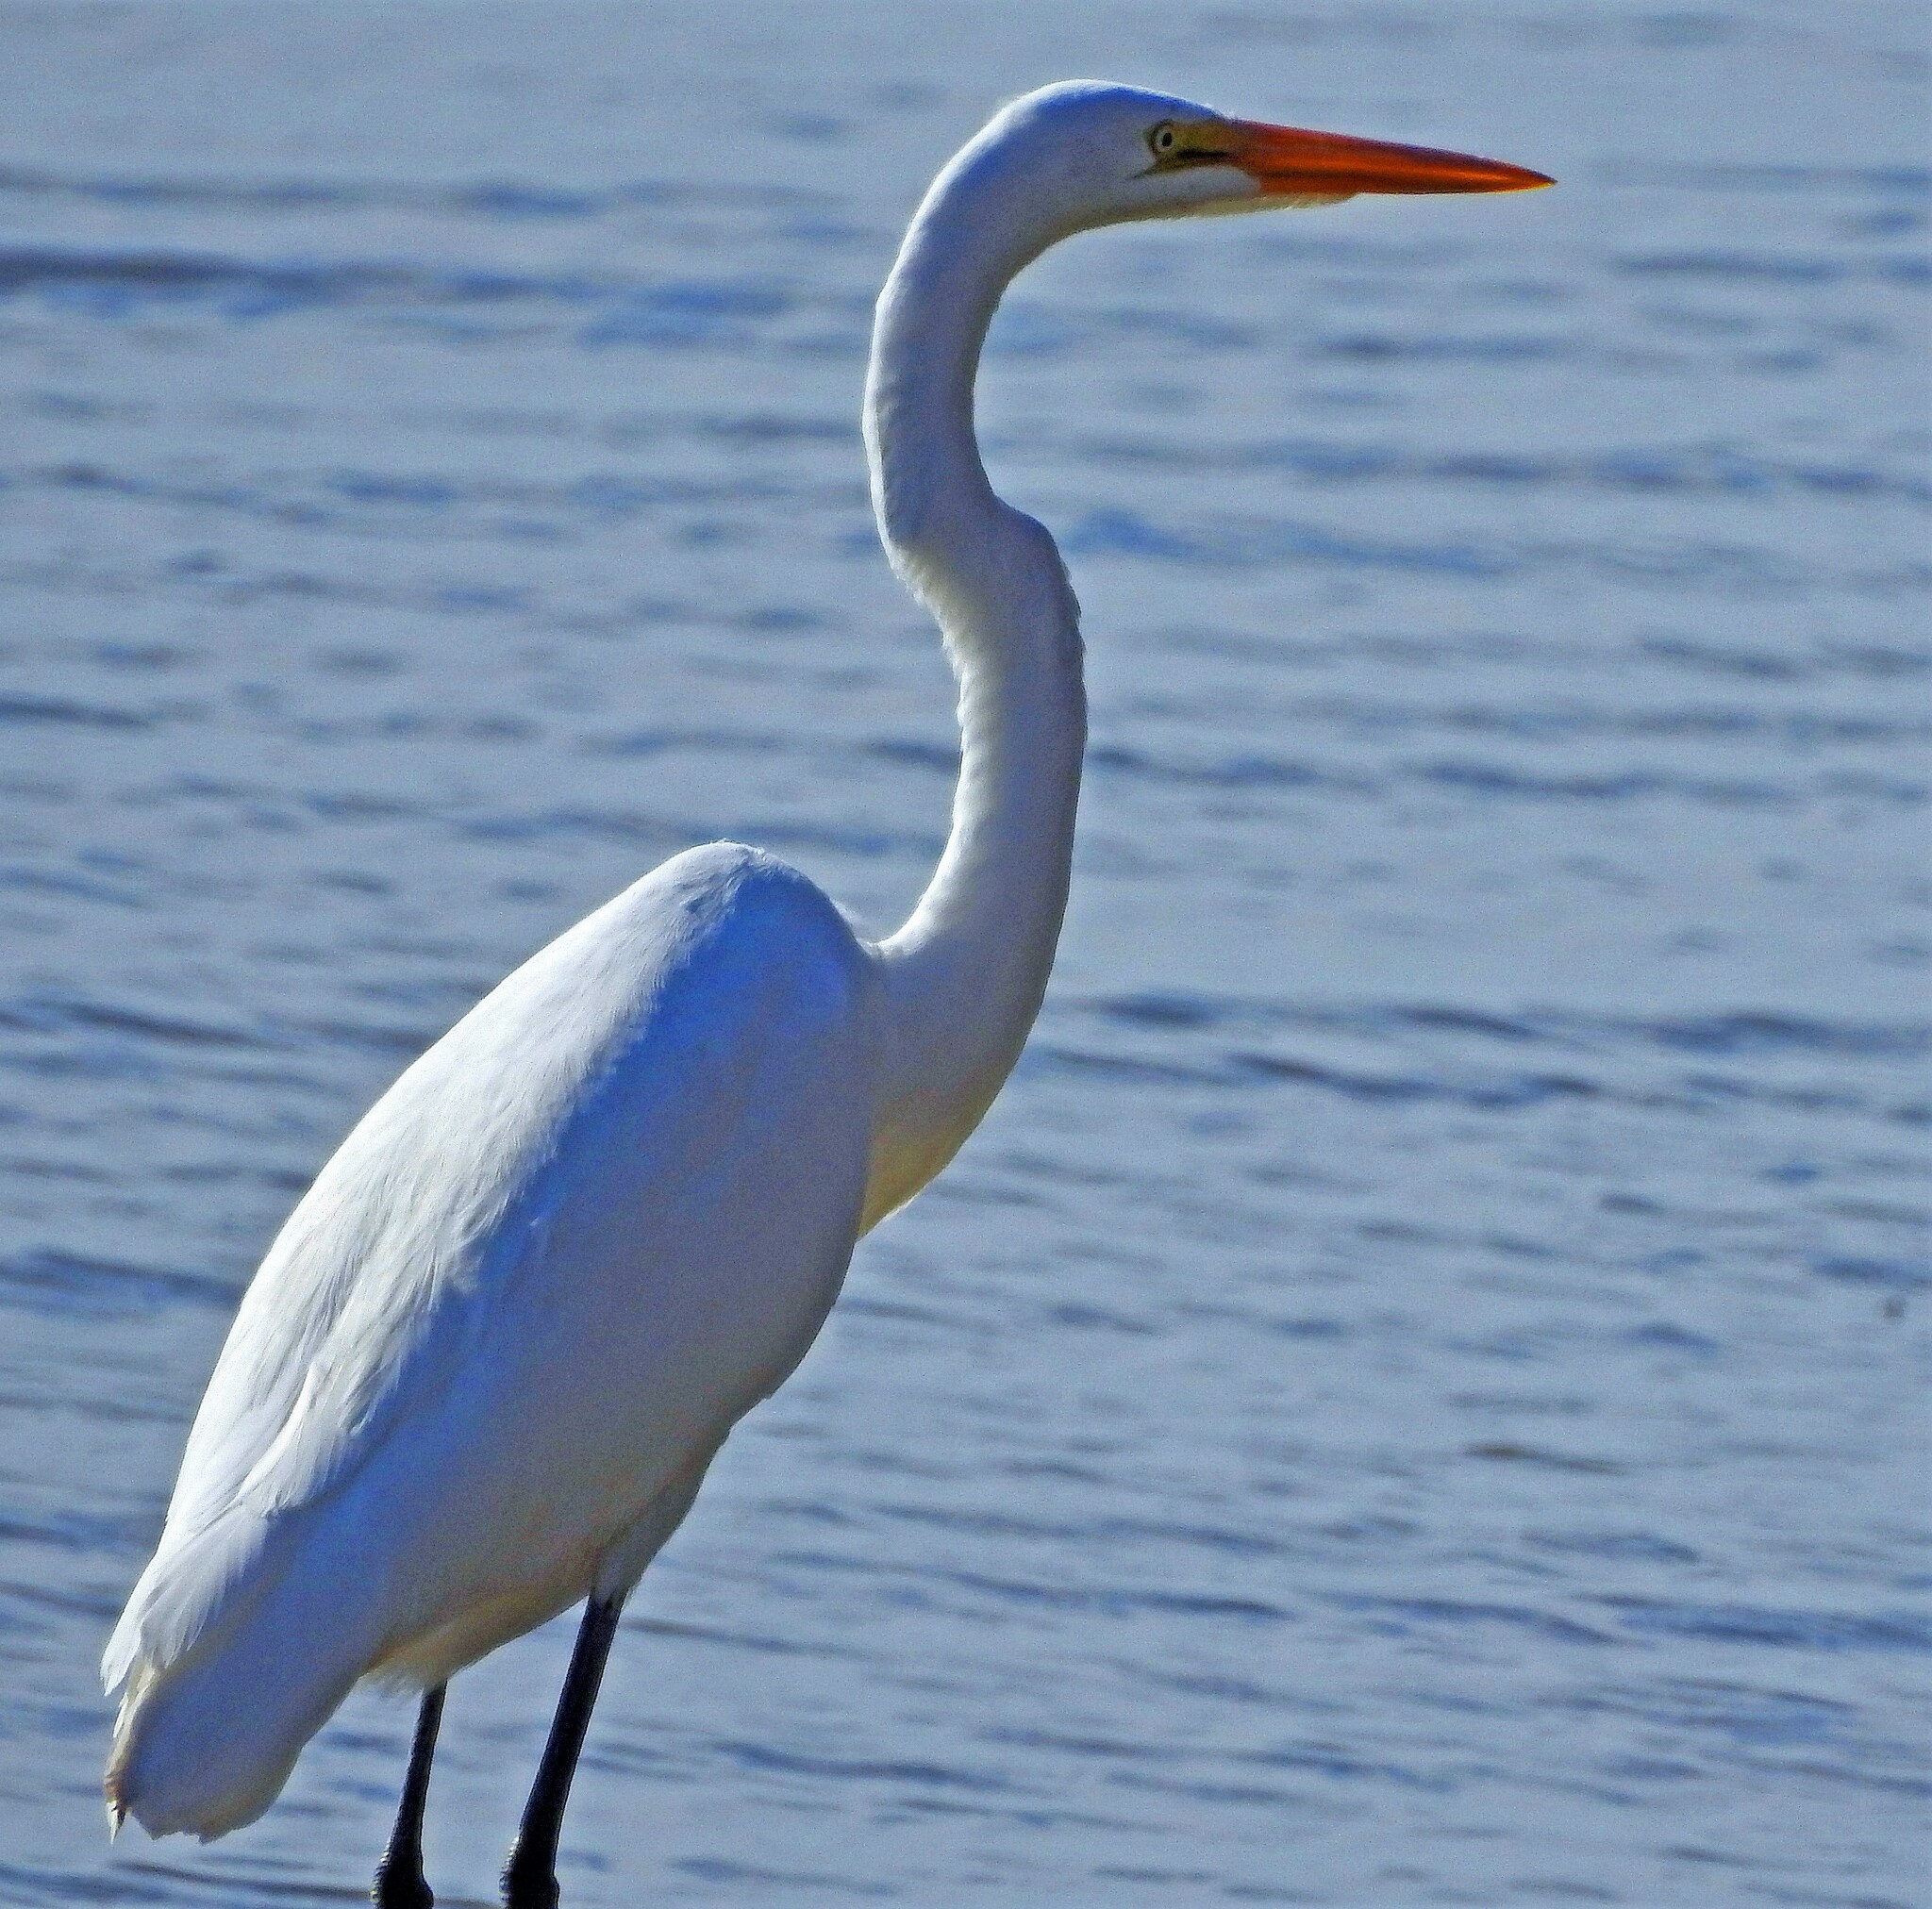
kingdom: Animalia
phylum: Chordata
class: Aves
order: Pelecaniformes
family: Ardeidae
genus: Ardea
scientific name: Ardea alba
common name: Great egret
